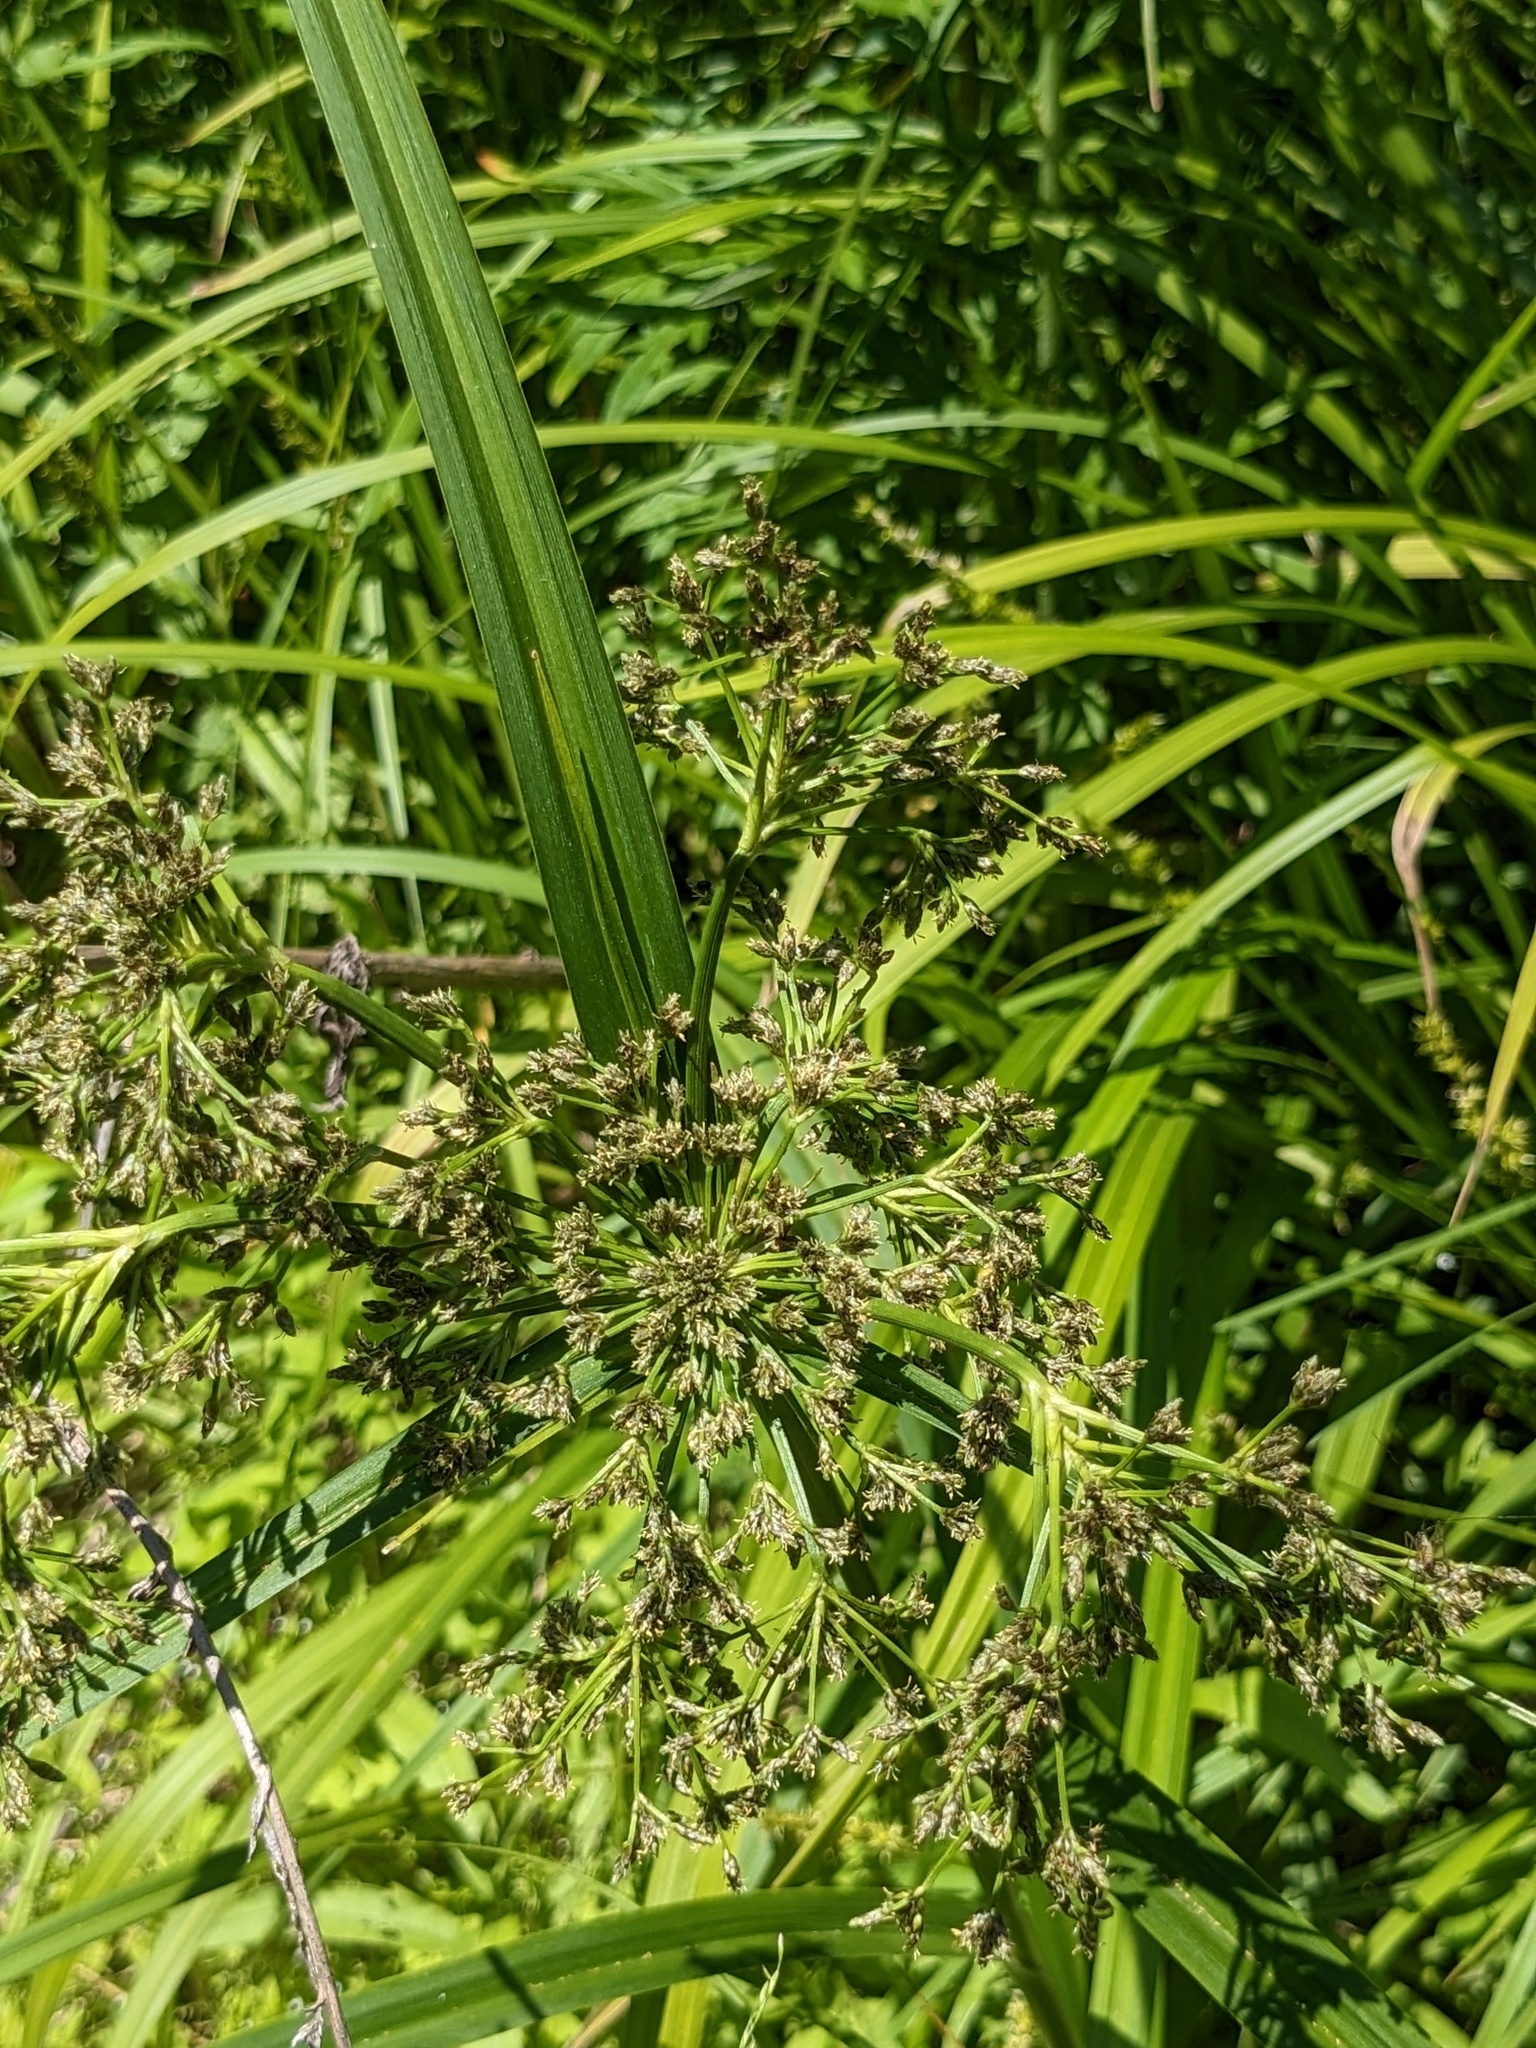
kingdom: Plantae
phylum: Tracheophyta
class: Liliopsida
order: Poales
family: Cyperaceae
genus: Scirpus
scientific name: Scirpus radicans
